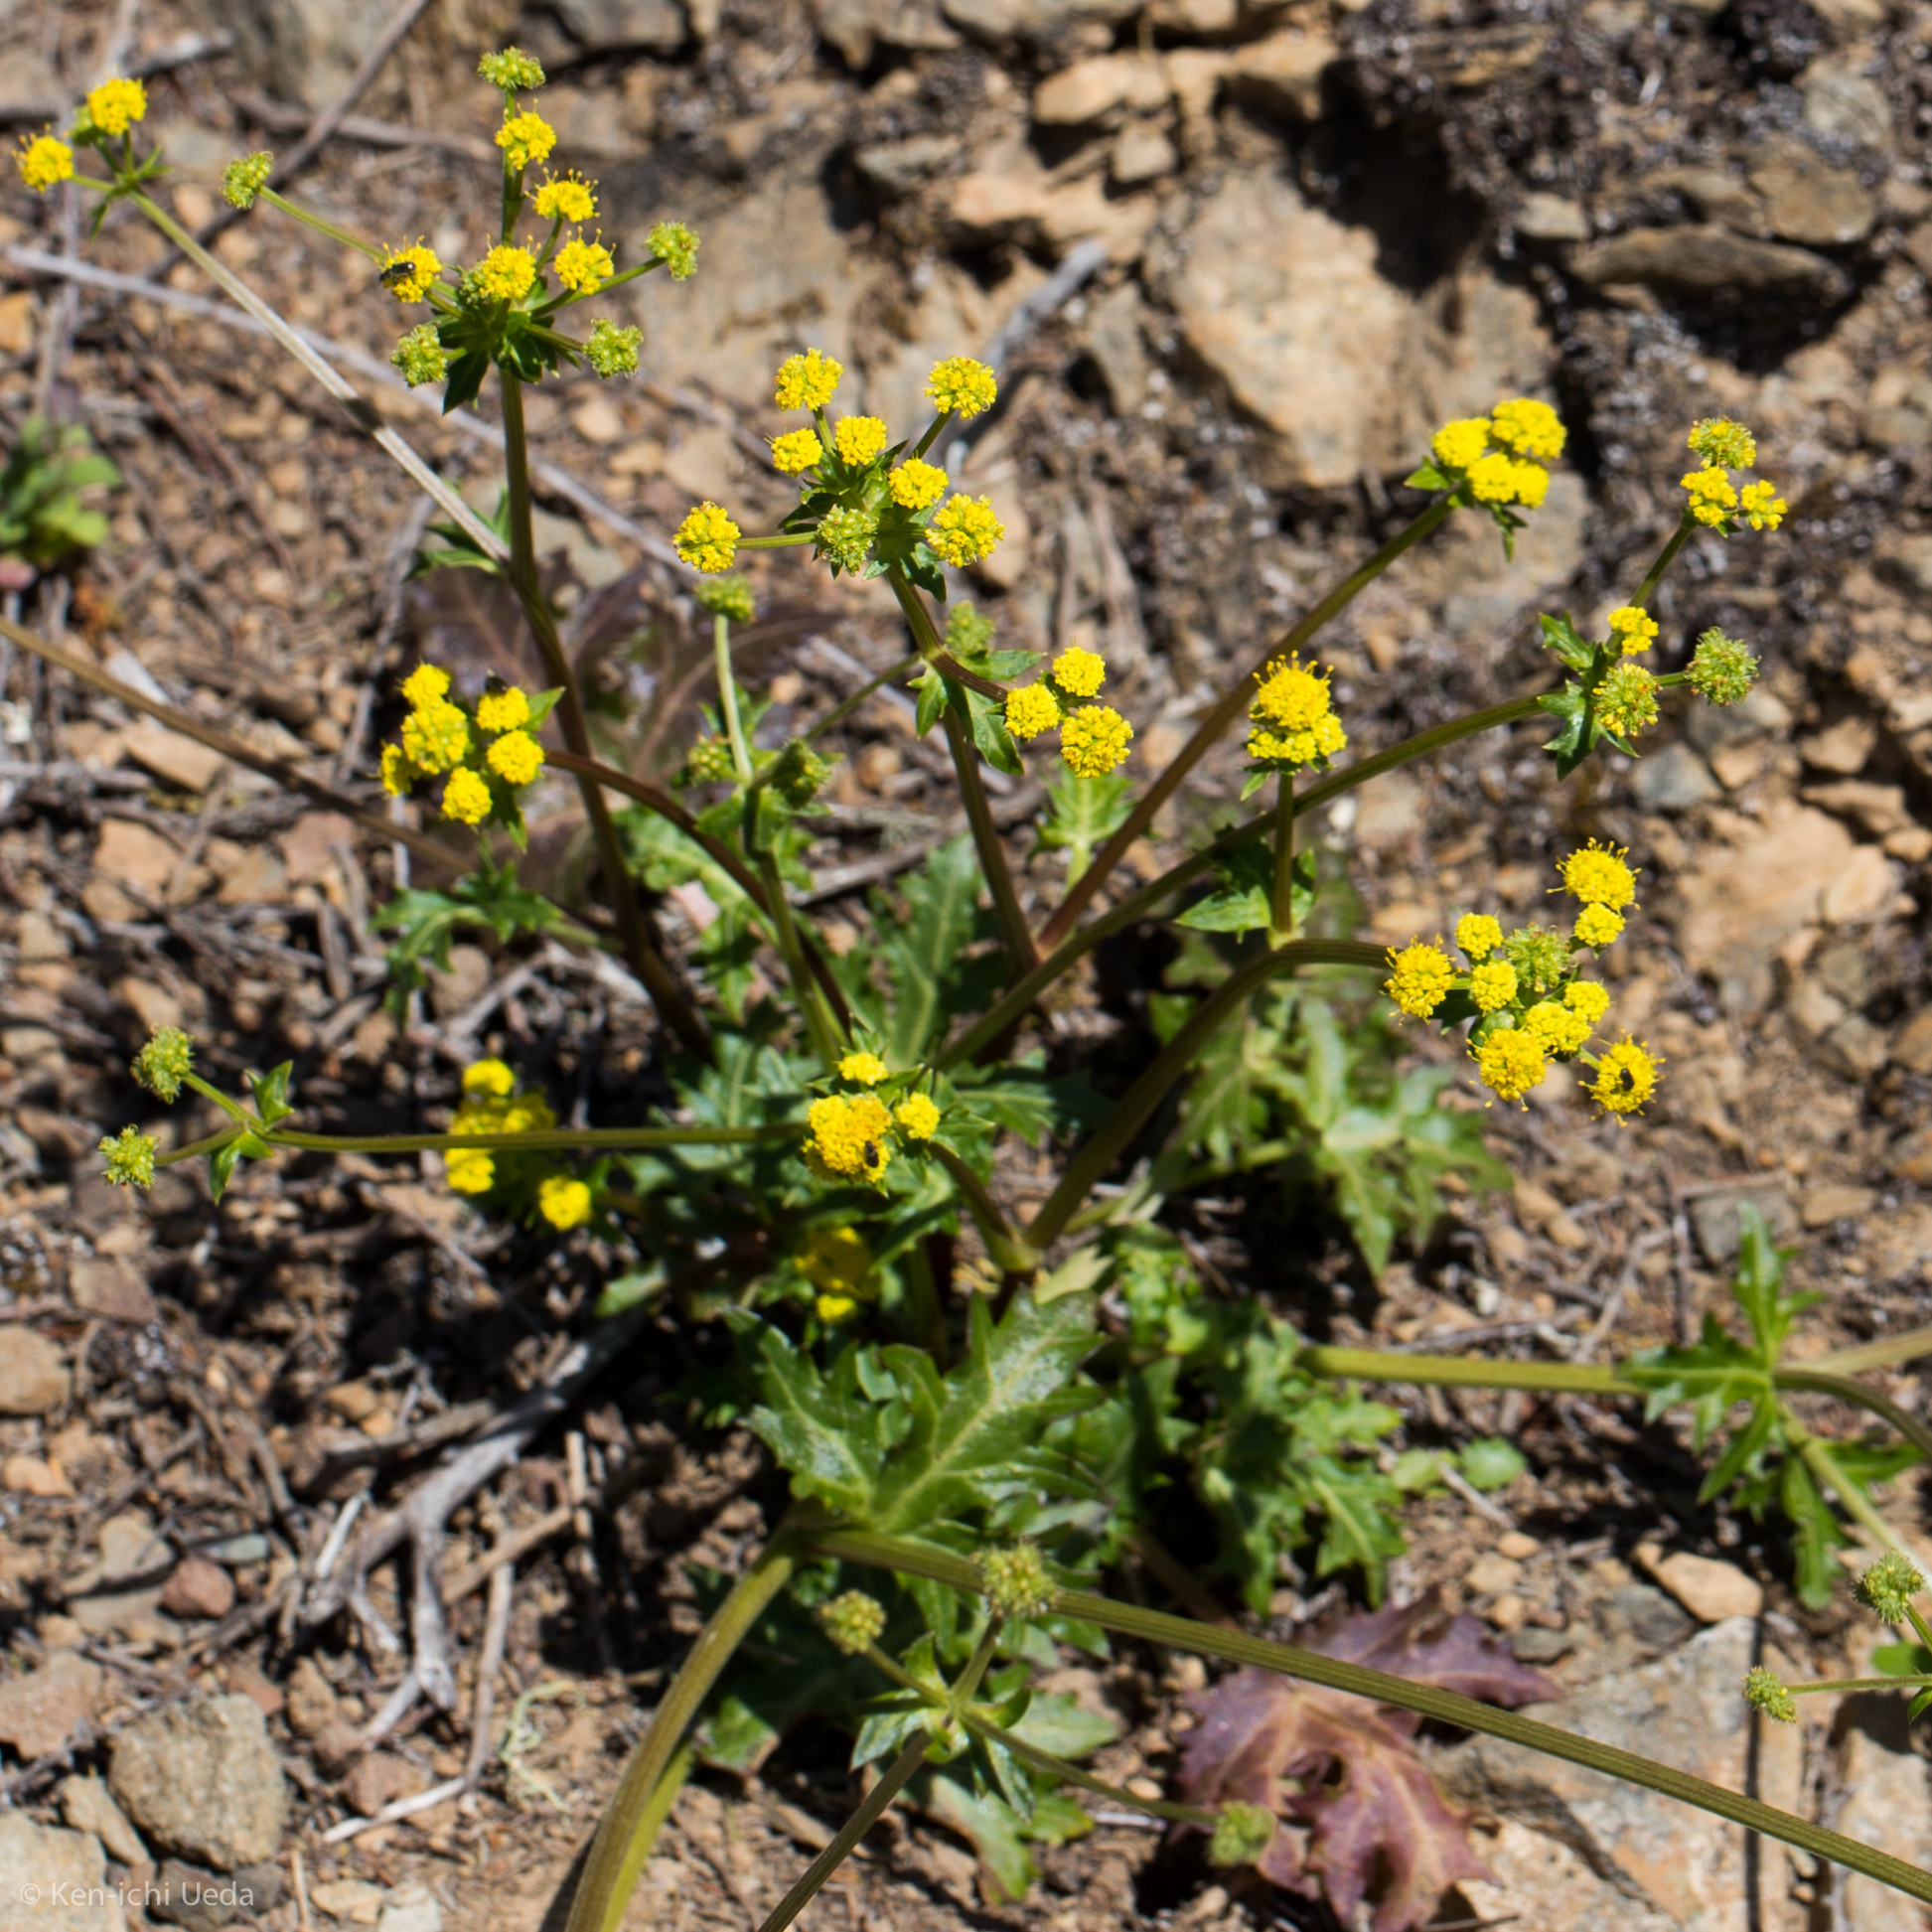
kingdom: Plantae
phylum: Tracheophyta
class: Magnoliopsida
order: Apiales
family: Apiaceae
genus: Sanicula
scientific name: Sanicula laciniata
